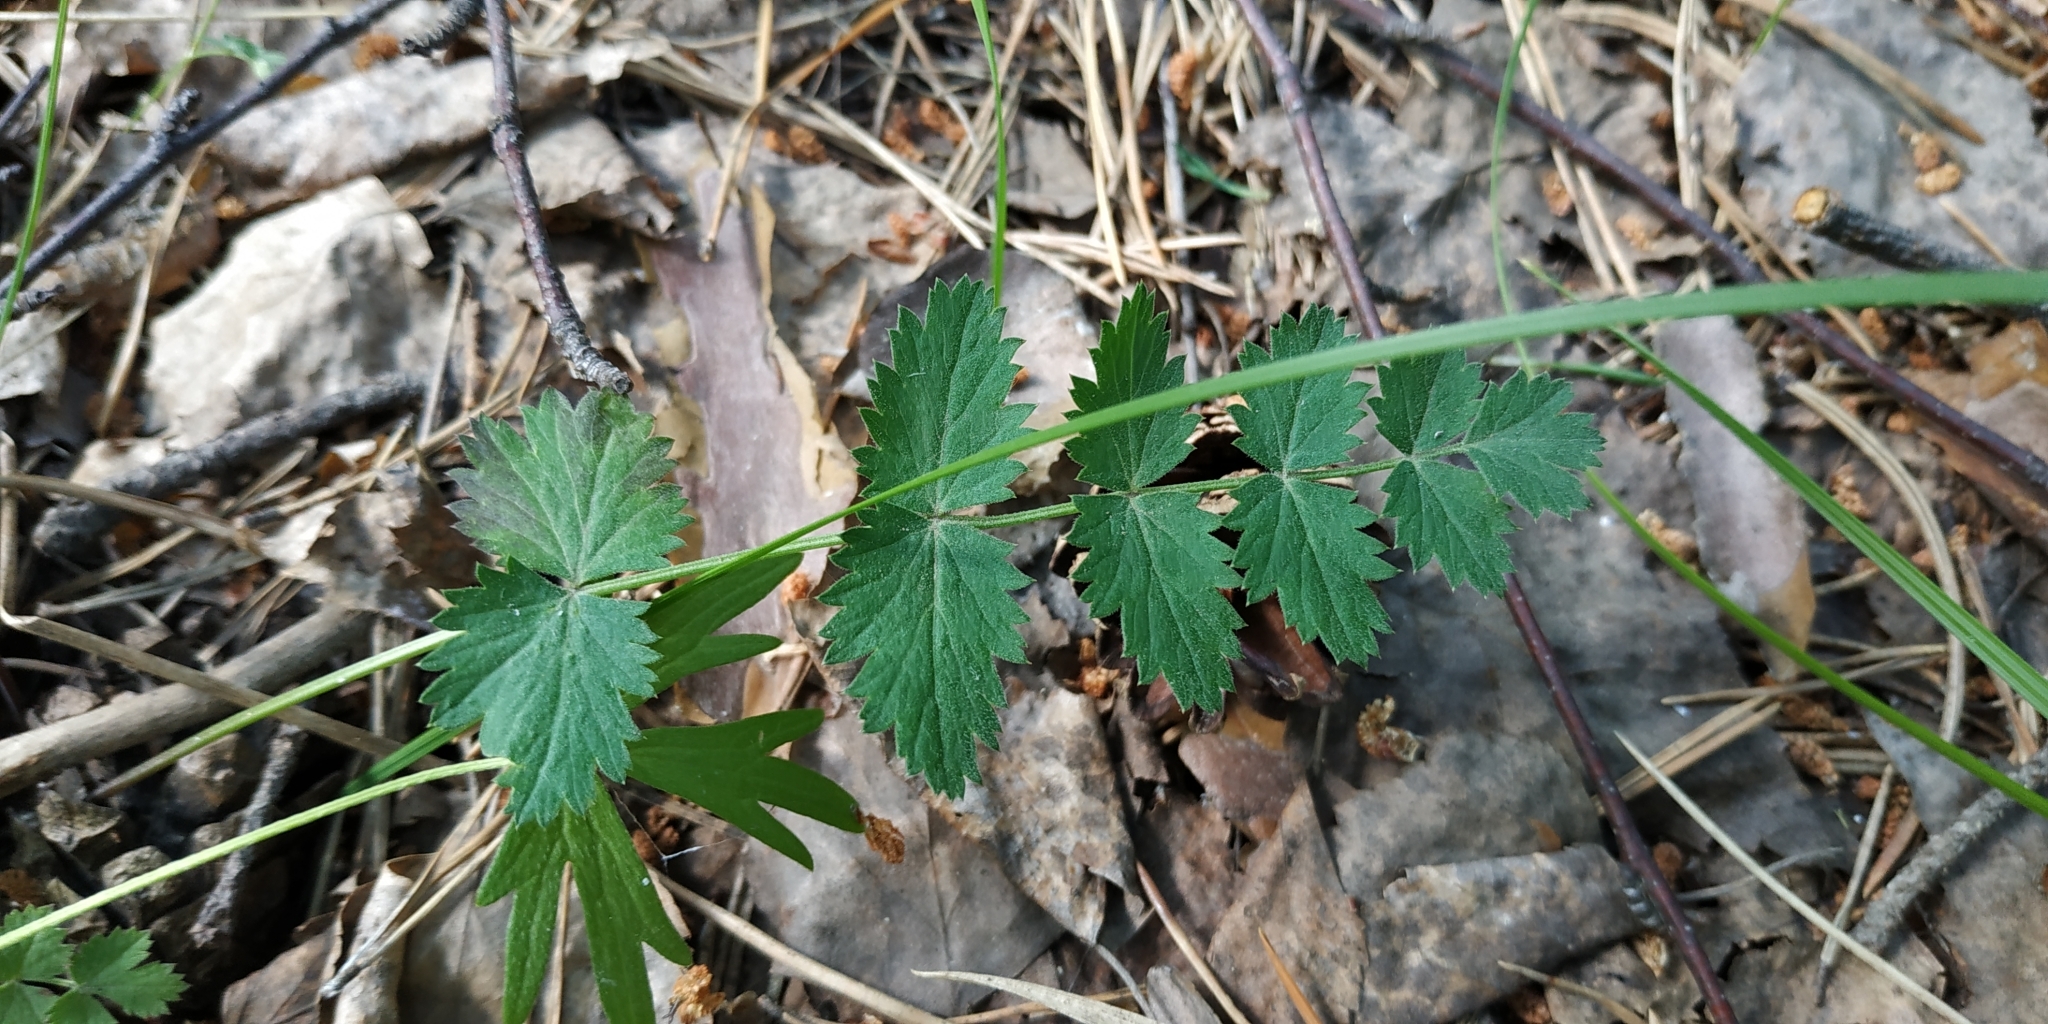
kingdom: Plantae
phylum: Tracheophyta
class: Magnoliopsida
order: Apiales
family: Apiaceae
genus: Pimpinella
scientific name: Pimpinella saxifraga
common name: Burnet-saxifrage
